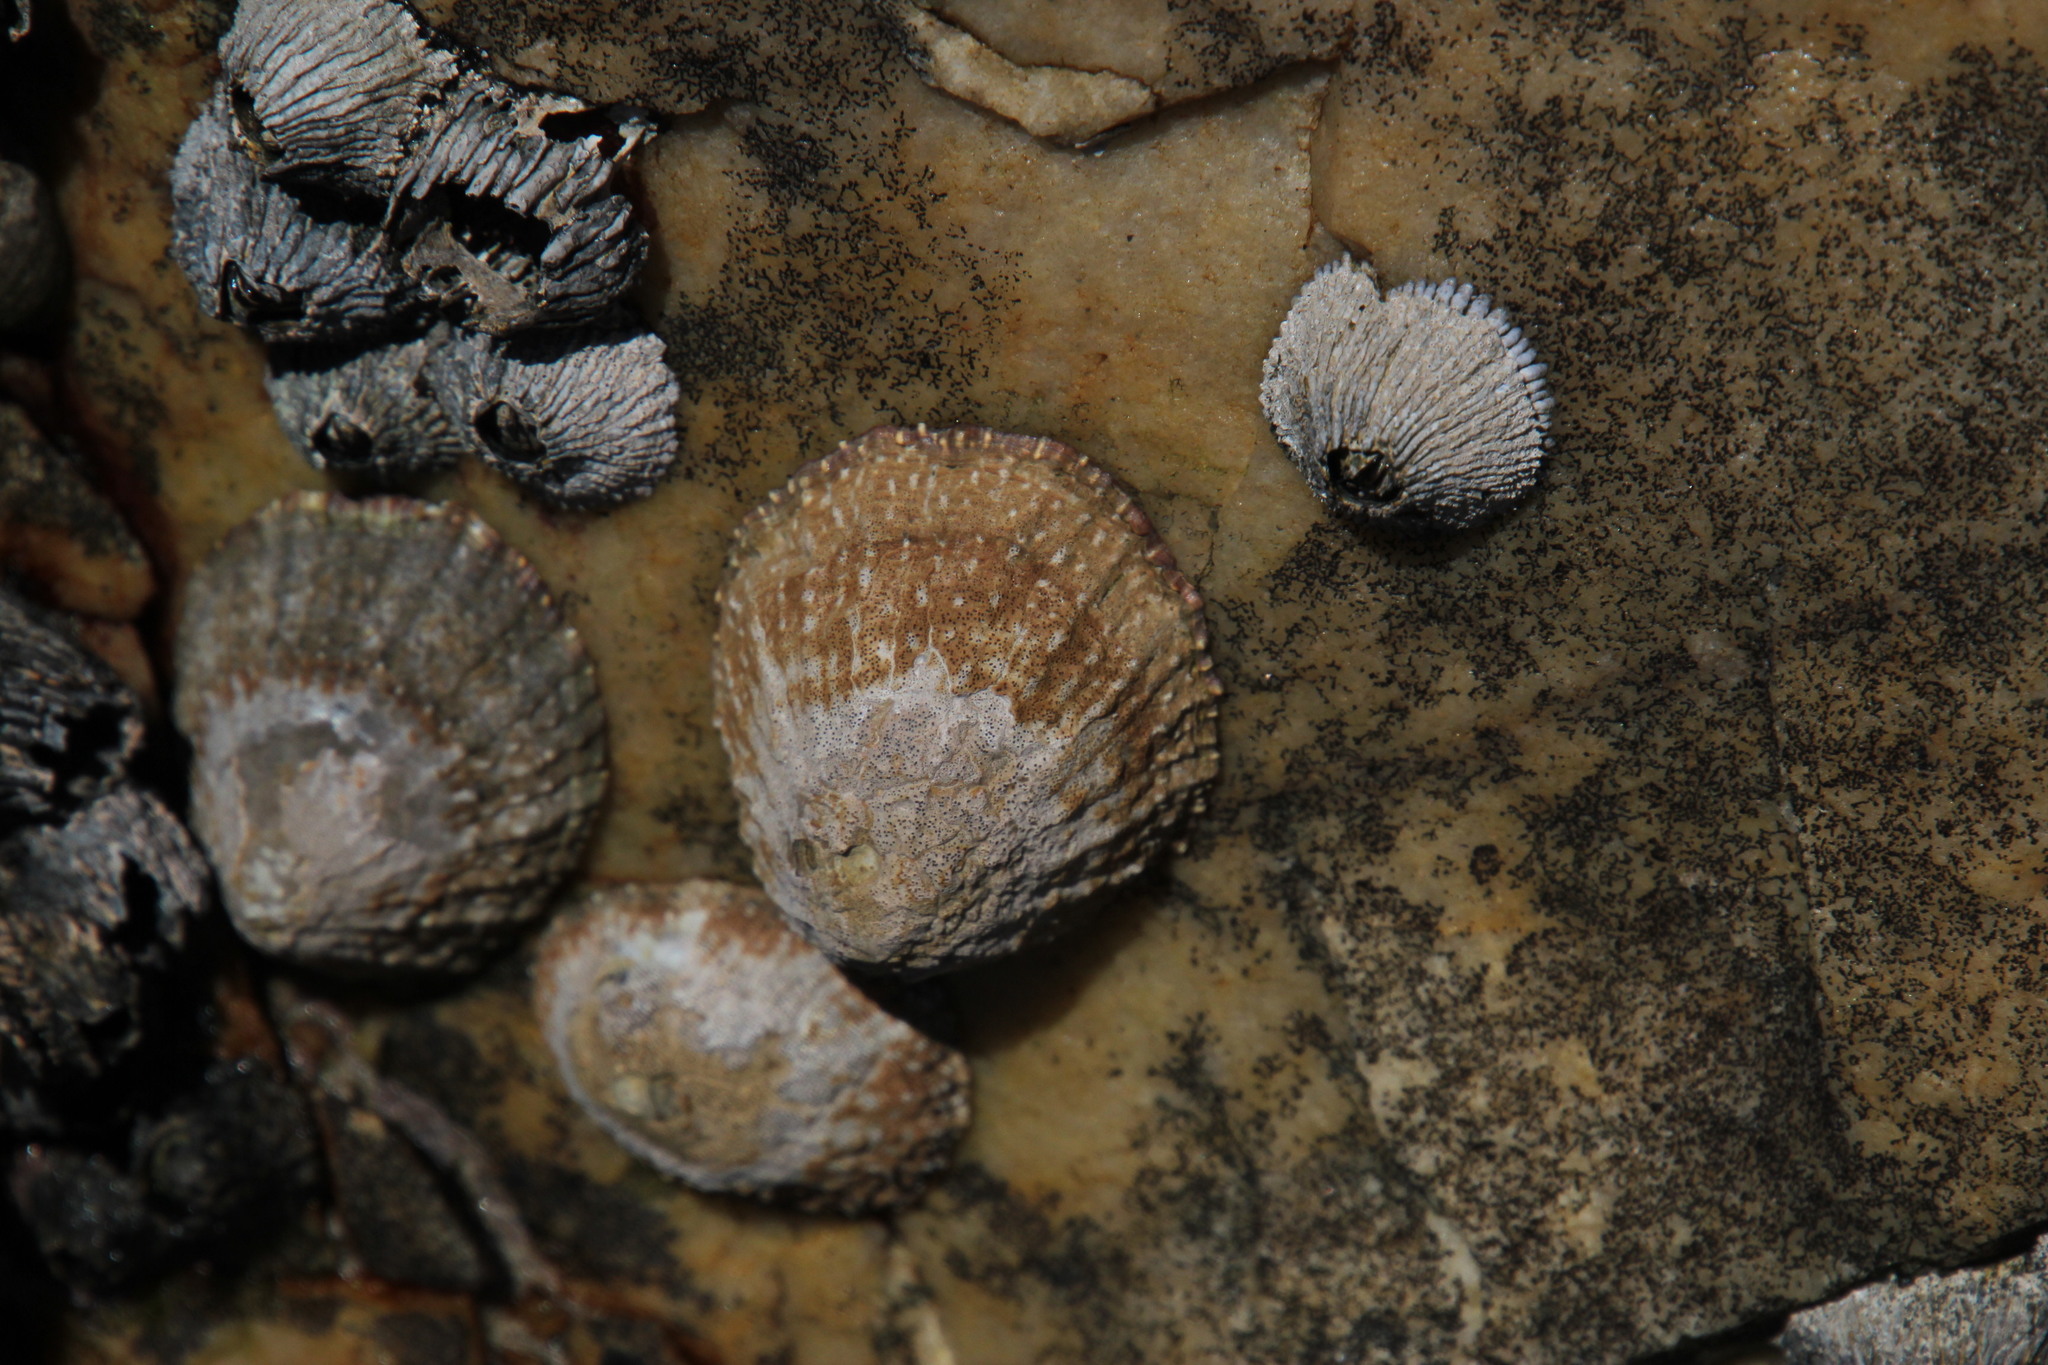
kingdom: Animalia
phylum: Mollusca
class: Gastropoda
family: Patellidae
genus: Scutellastra
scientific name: Scutellastra granularis
